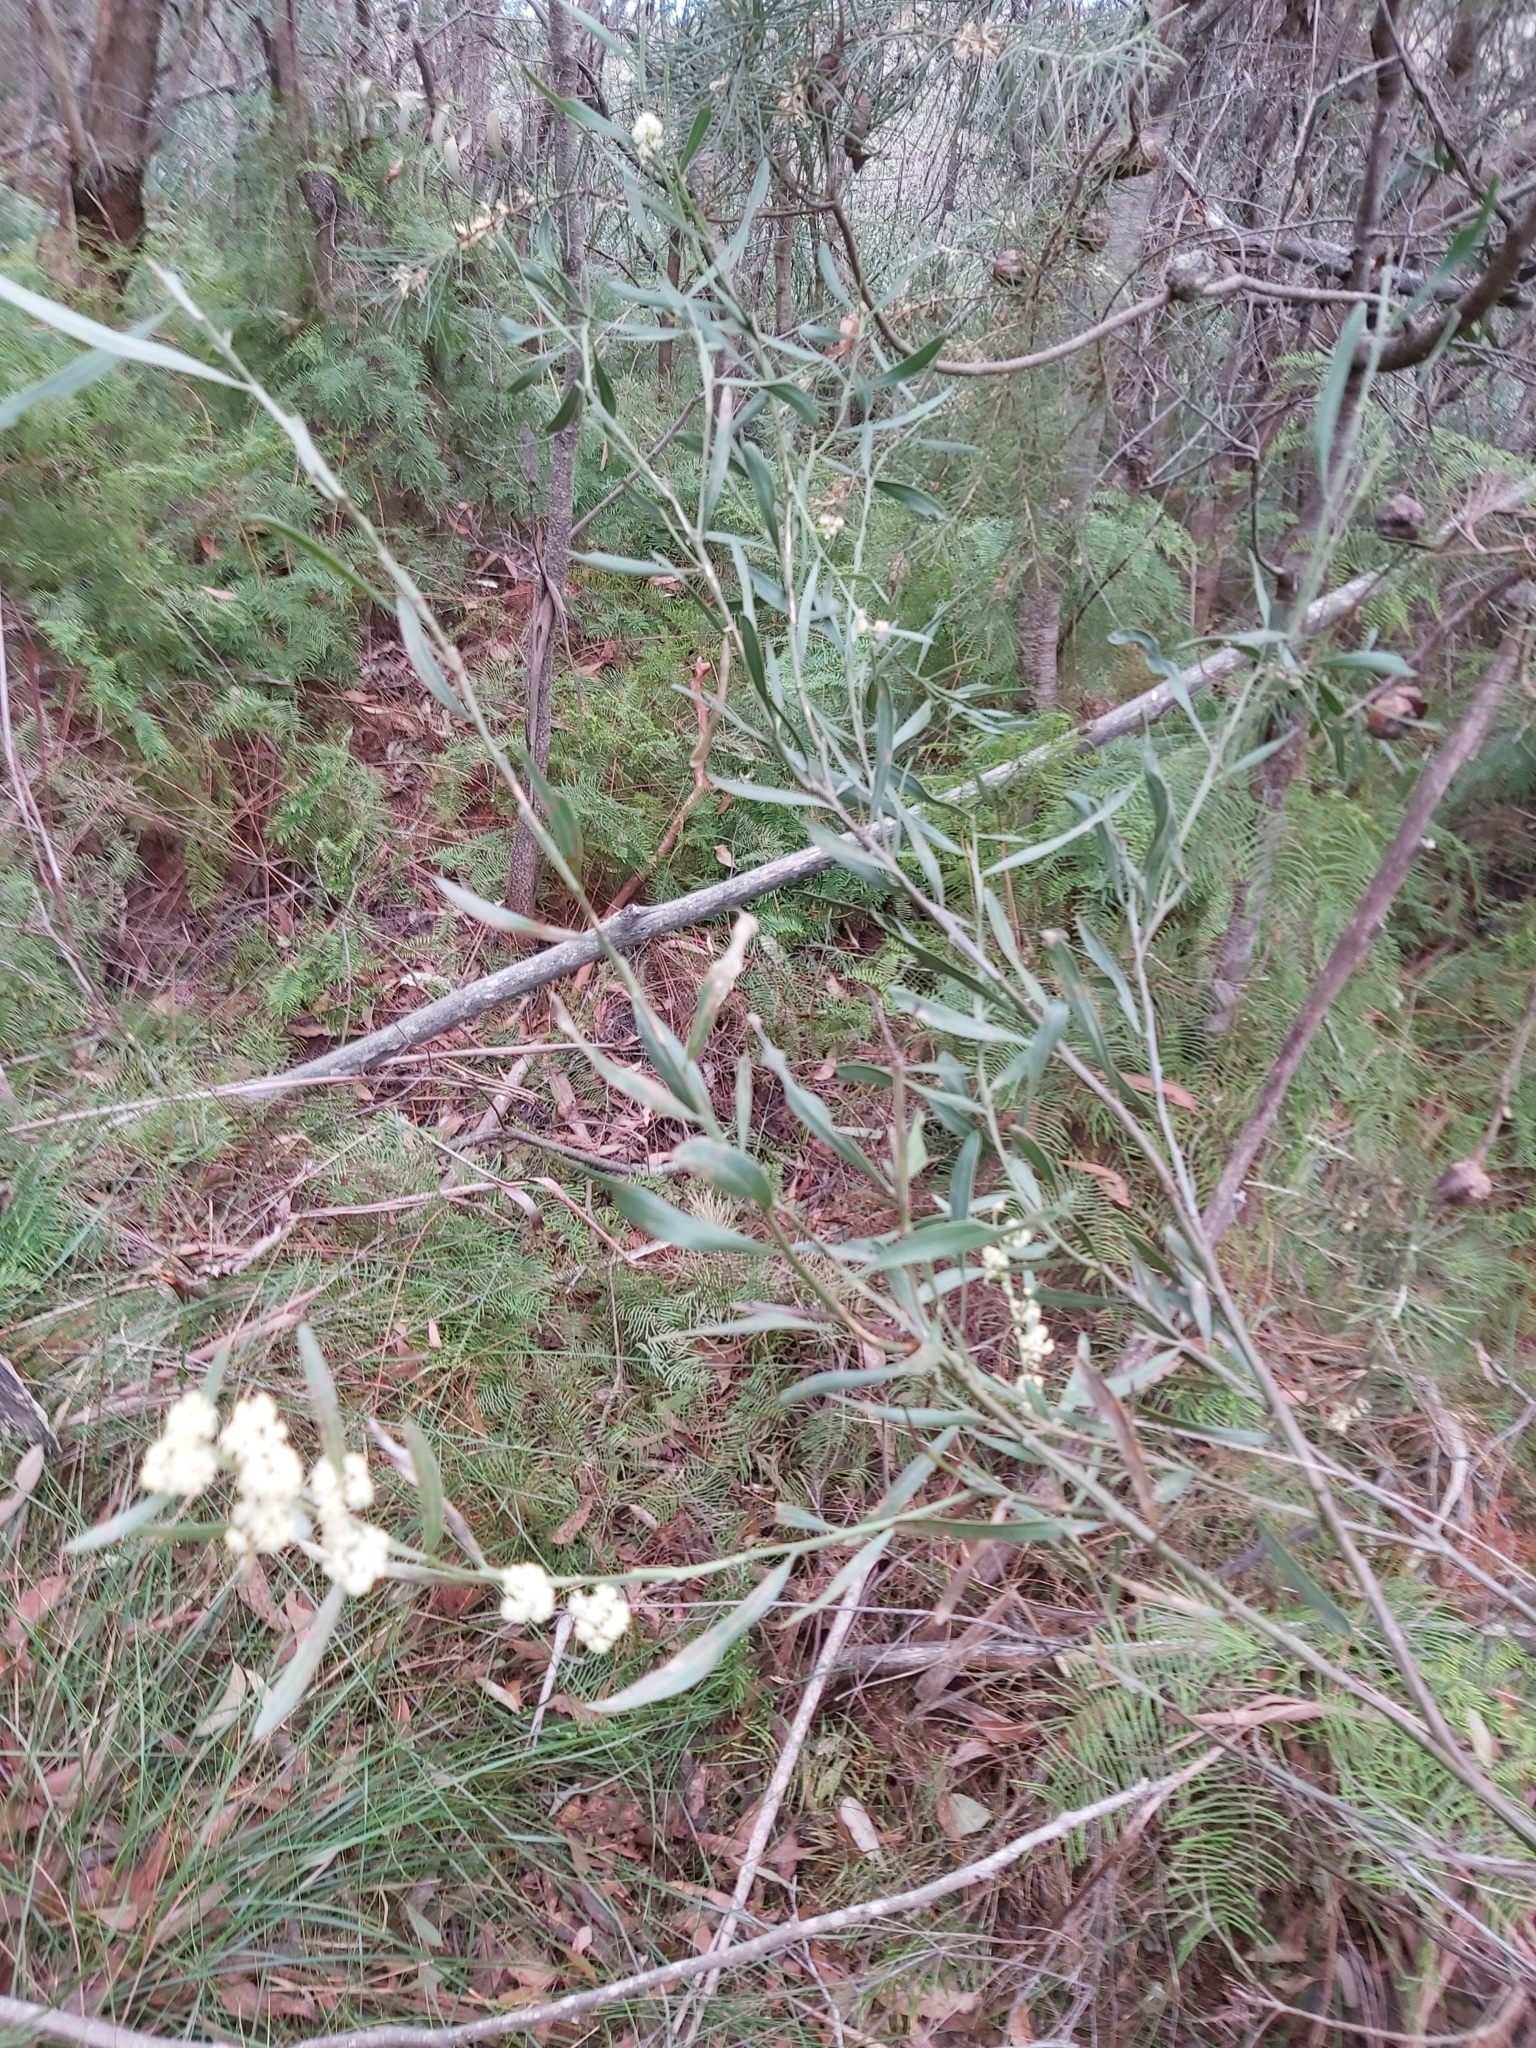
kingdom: Plantae
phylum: Tracheophyta
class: Magnoliopsida
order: Fabales
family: Fabaceae
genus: Acacia
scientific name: Acacia suaveolens
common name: Sweet acacia
